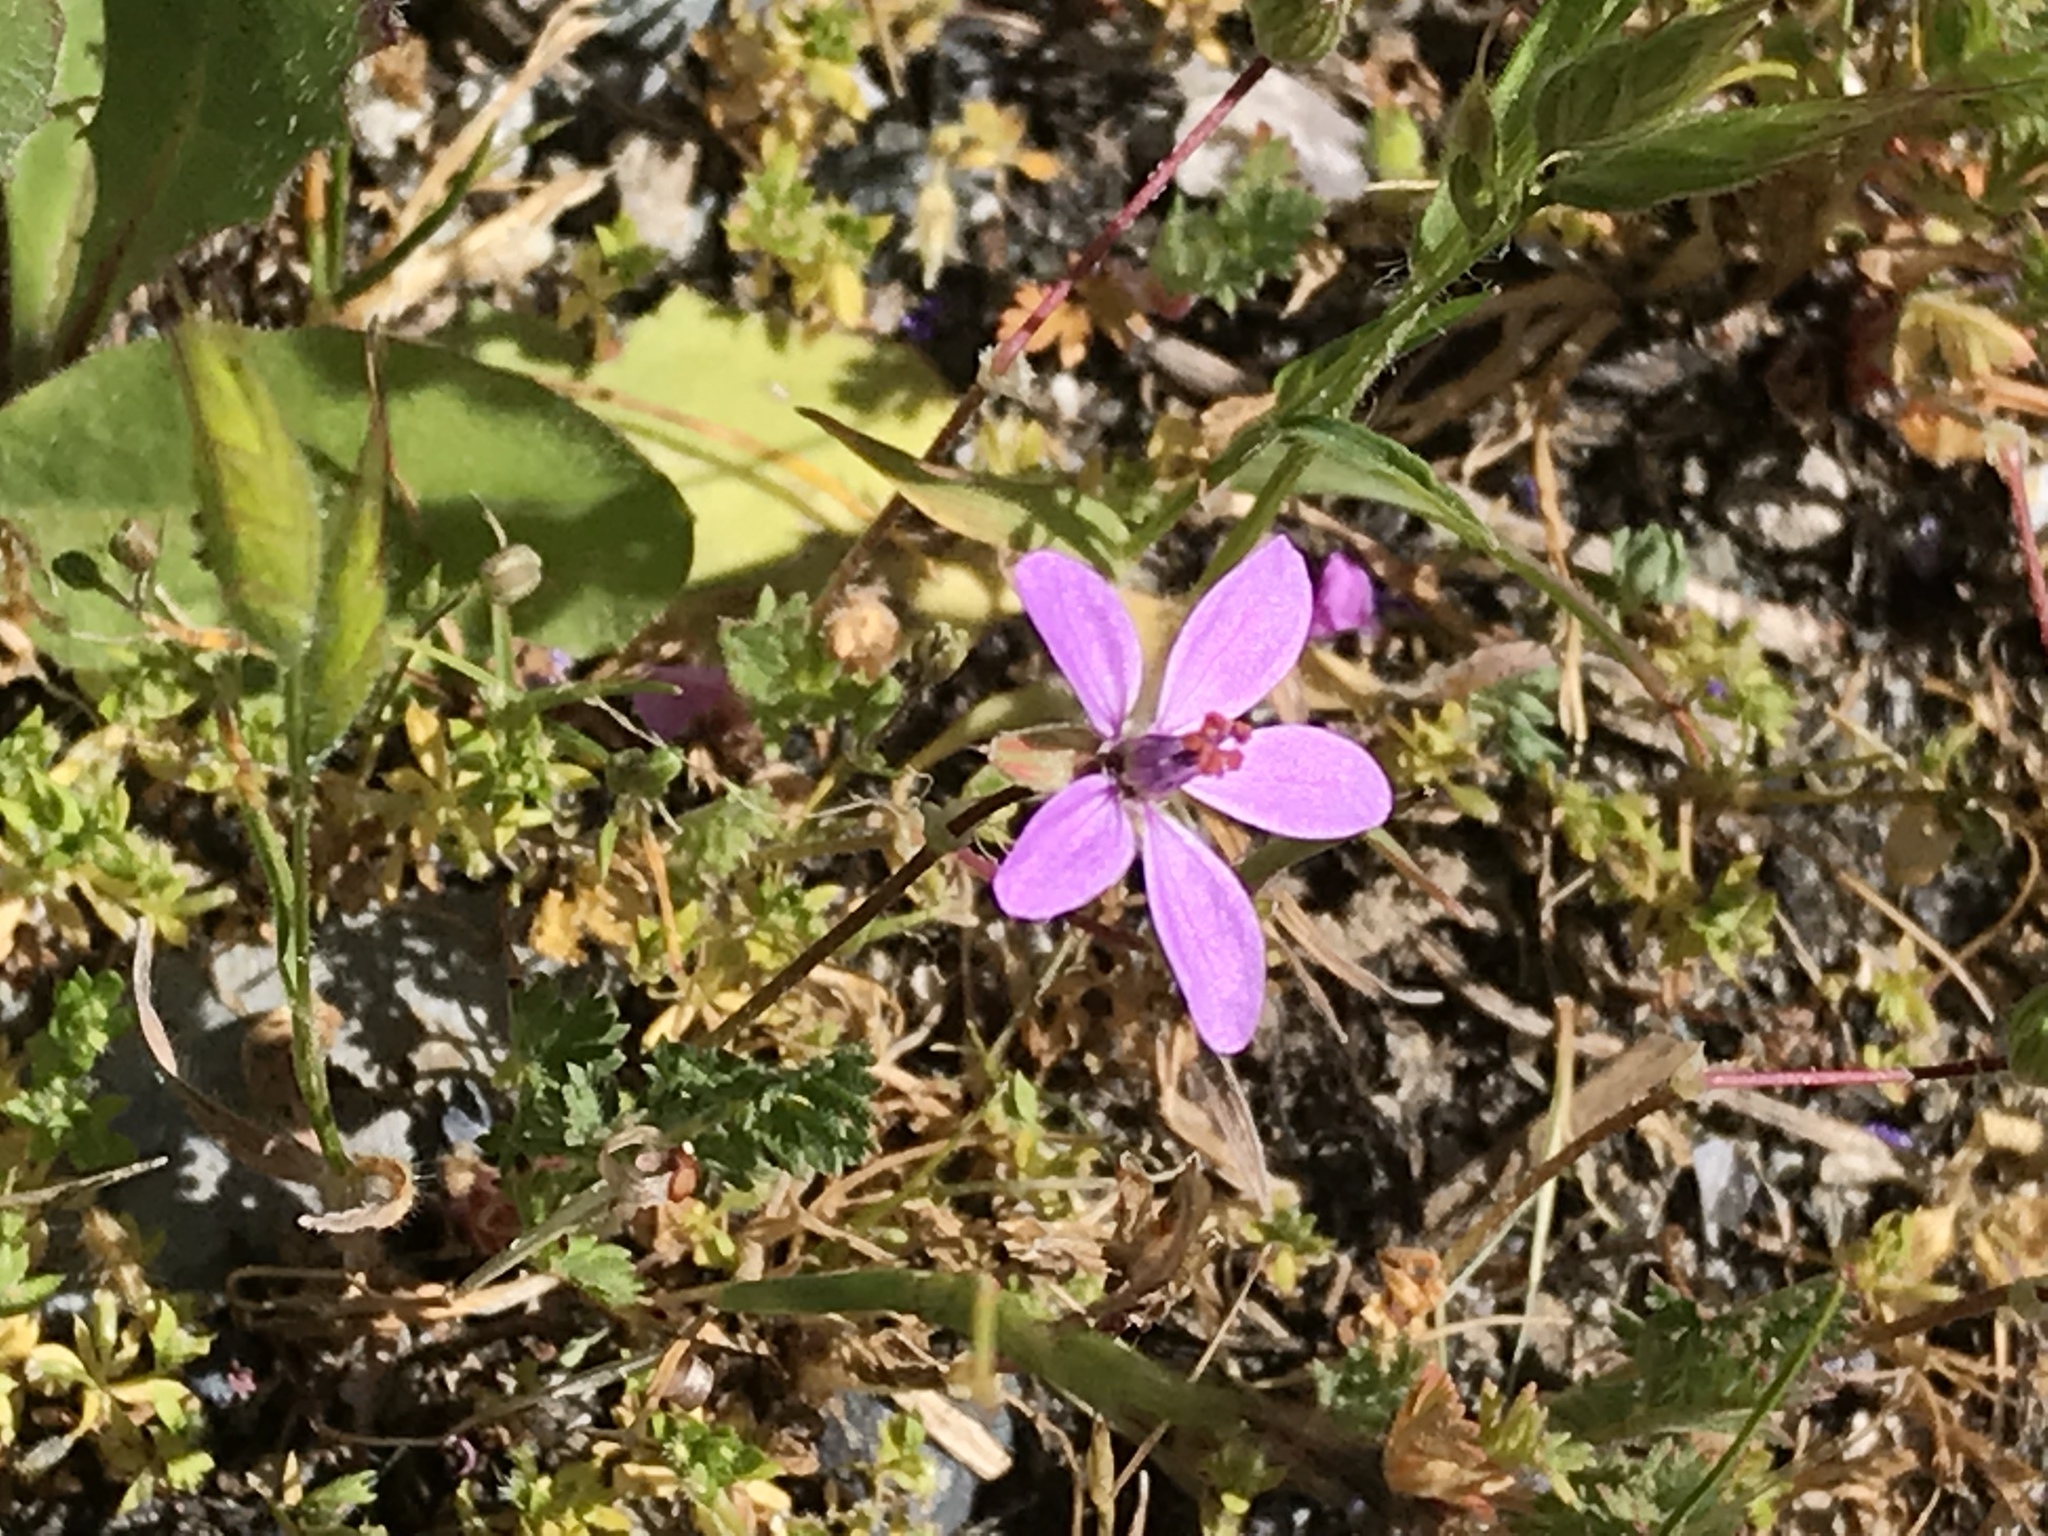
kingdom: Plantae
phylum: Tracheophyta
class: Magnoliopsida
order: Geraniales
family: Geraniaceae
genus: Erodium
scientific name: Erodium cicutarium
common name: Common stork's-bill
